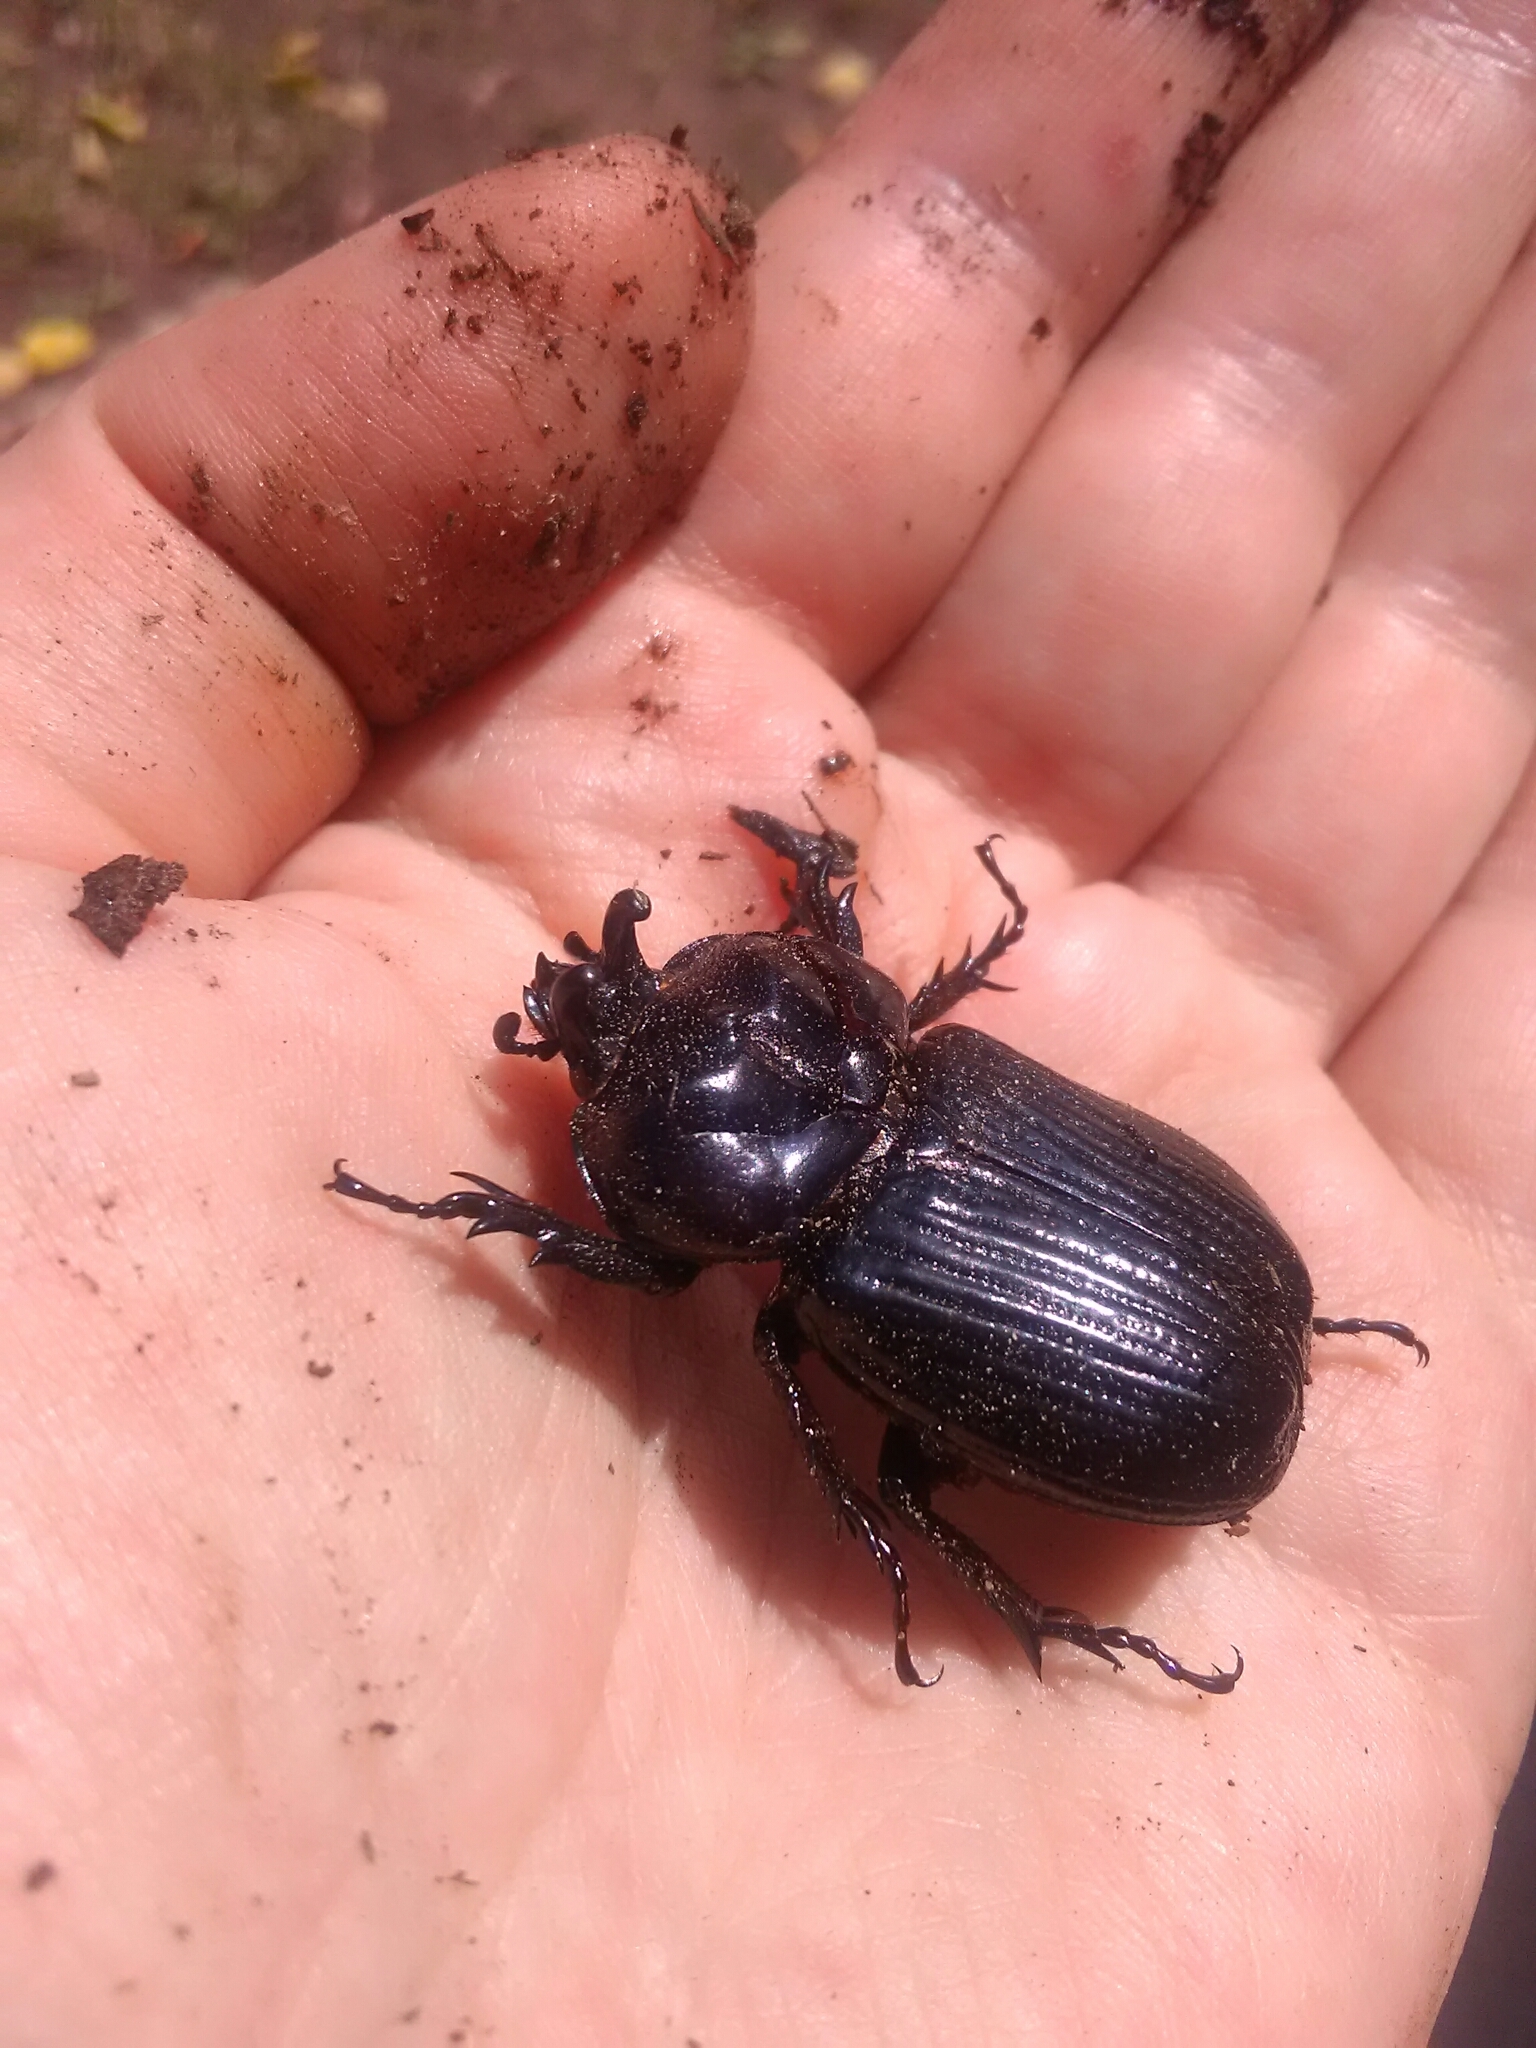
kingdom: Animalia
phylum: Arthropoda
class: Insecta
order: Coleoptera
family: Scarabaeidae
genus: Phileurus
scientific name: Phileurus truncatus
